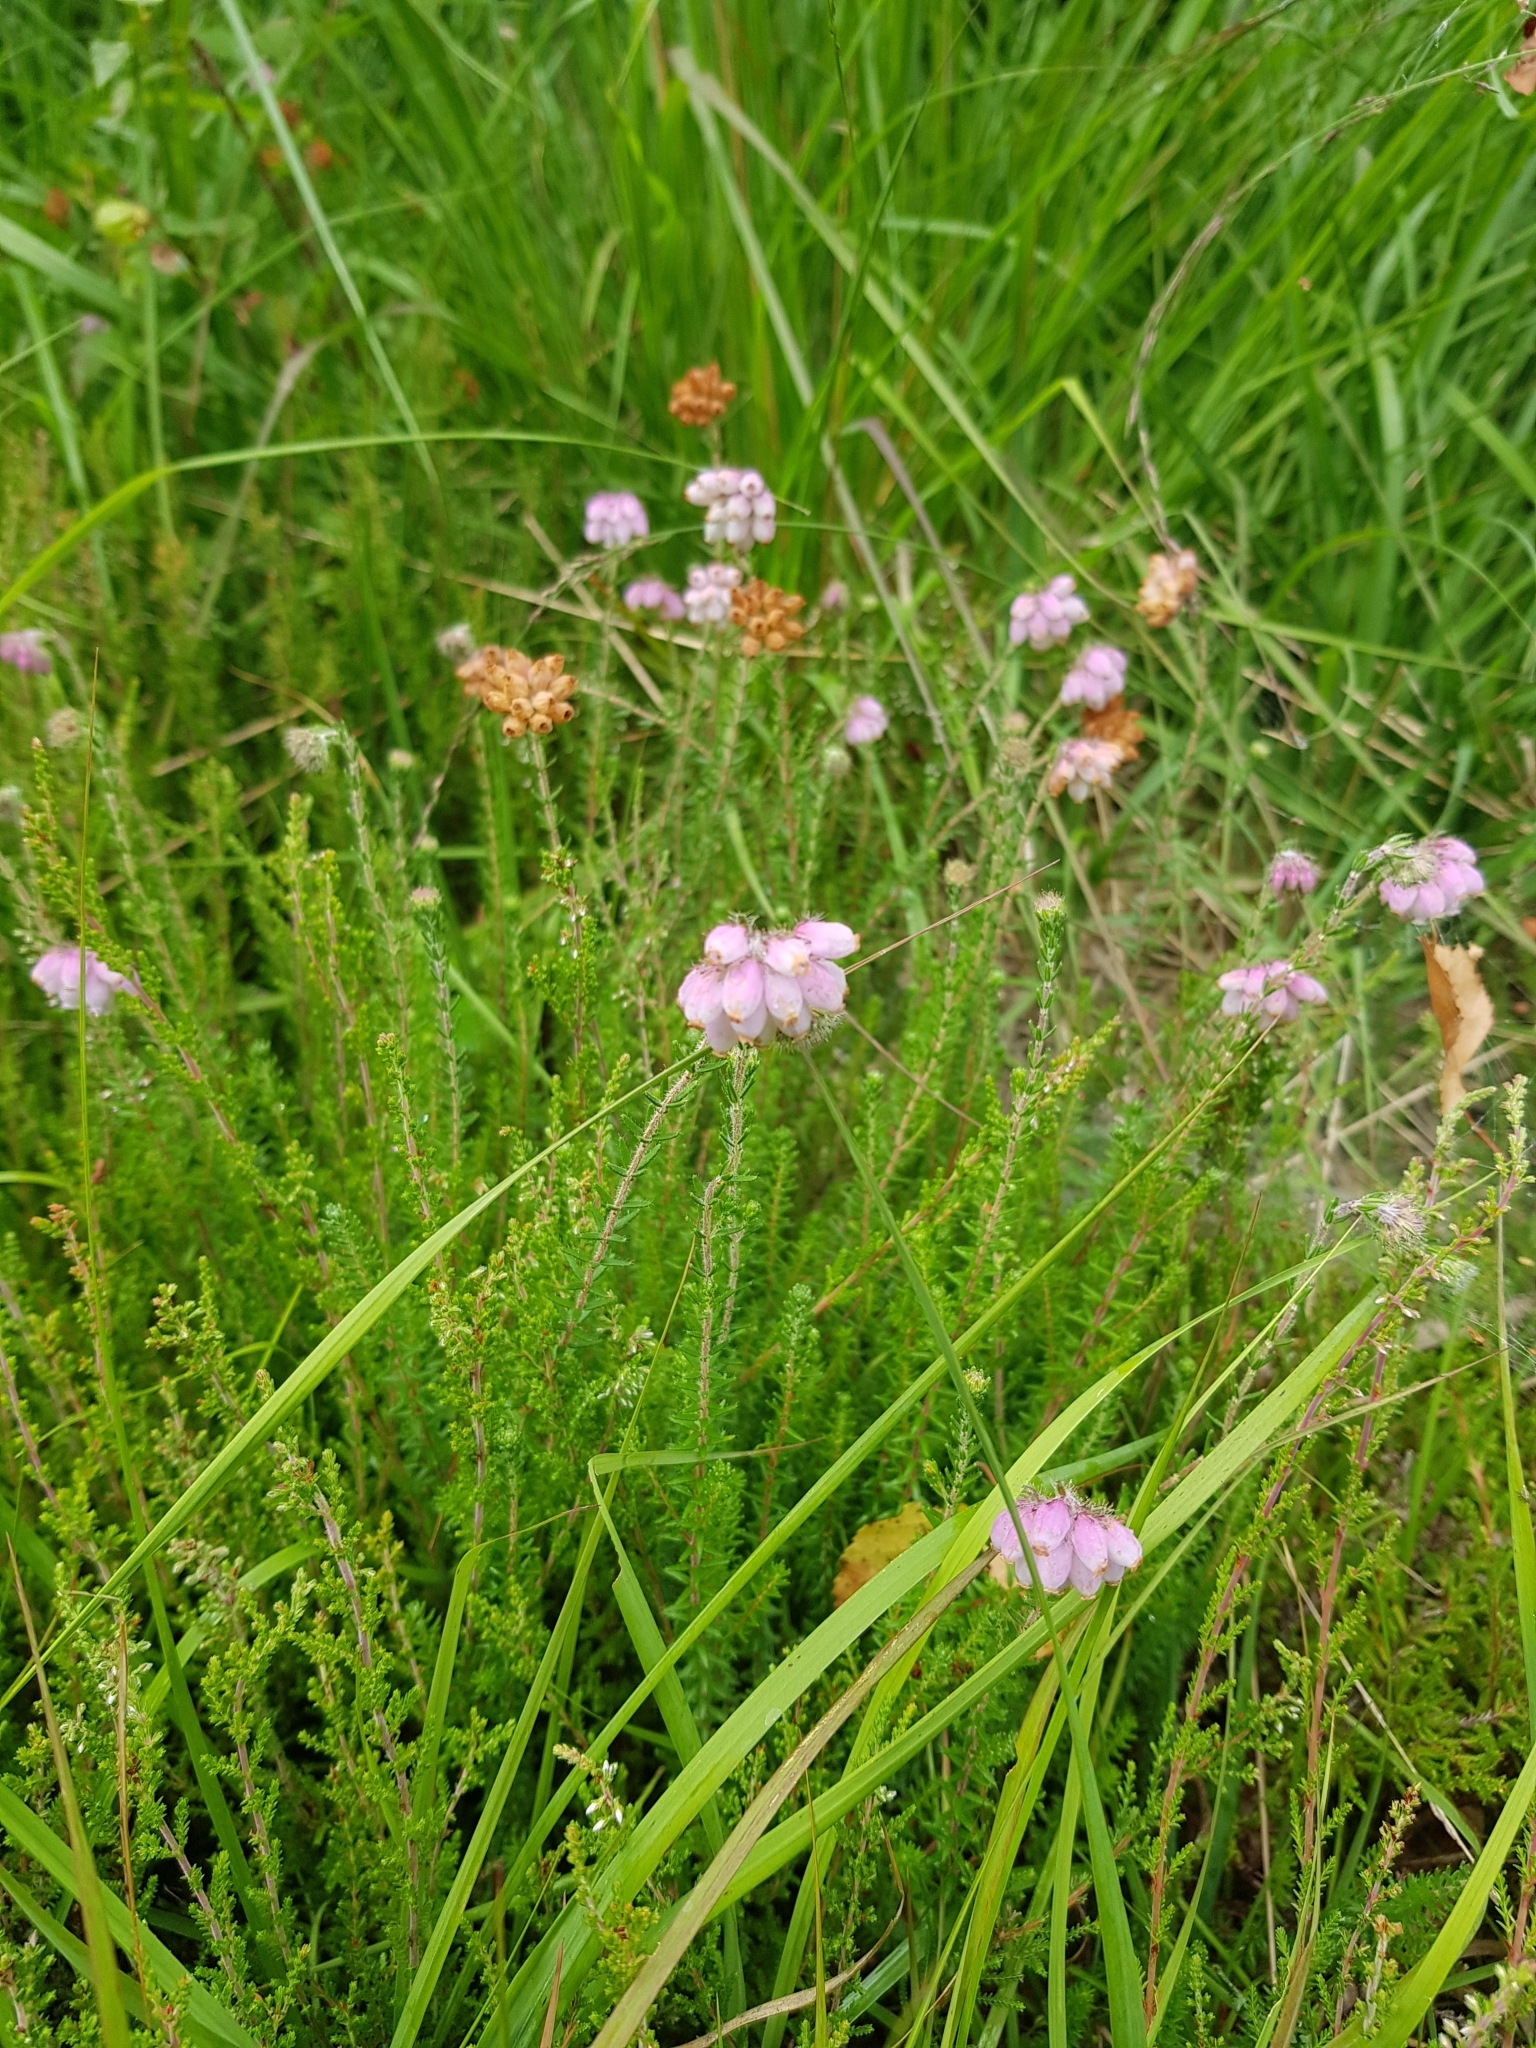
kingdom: Plantae
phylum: Tracheophyta
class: Magnoliopsida
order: Ericales
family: Ericaceae
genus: Erica
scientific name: Erica tetralix
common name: Cross-leaved heath
